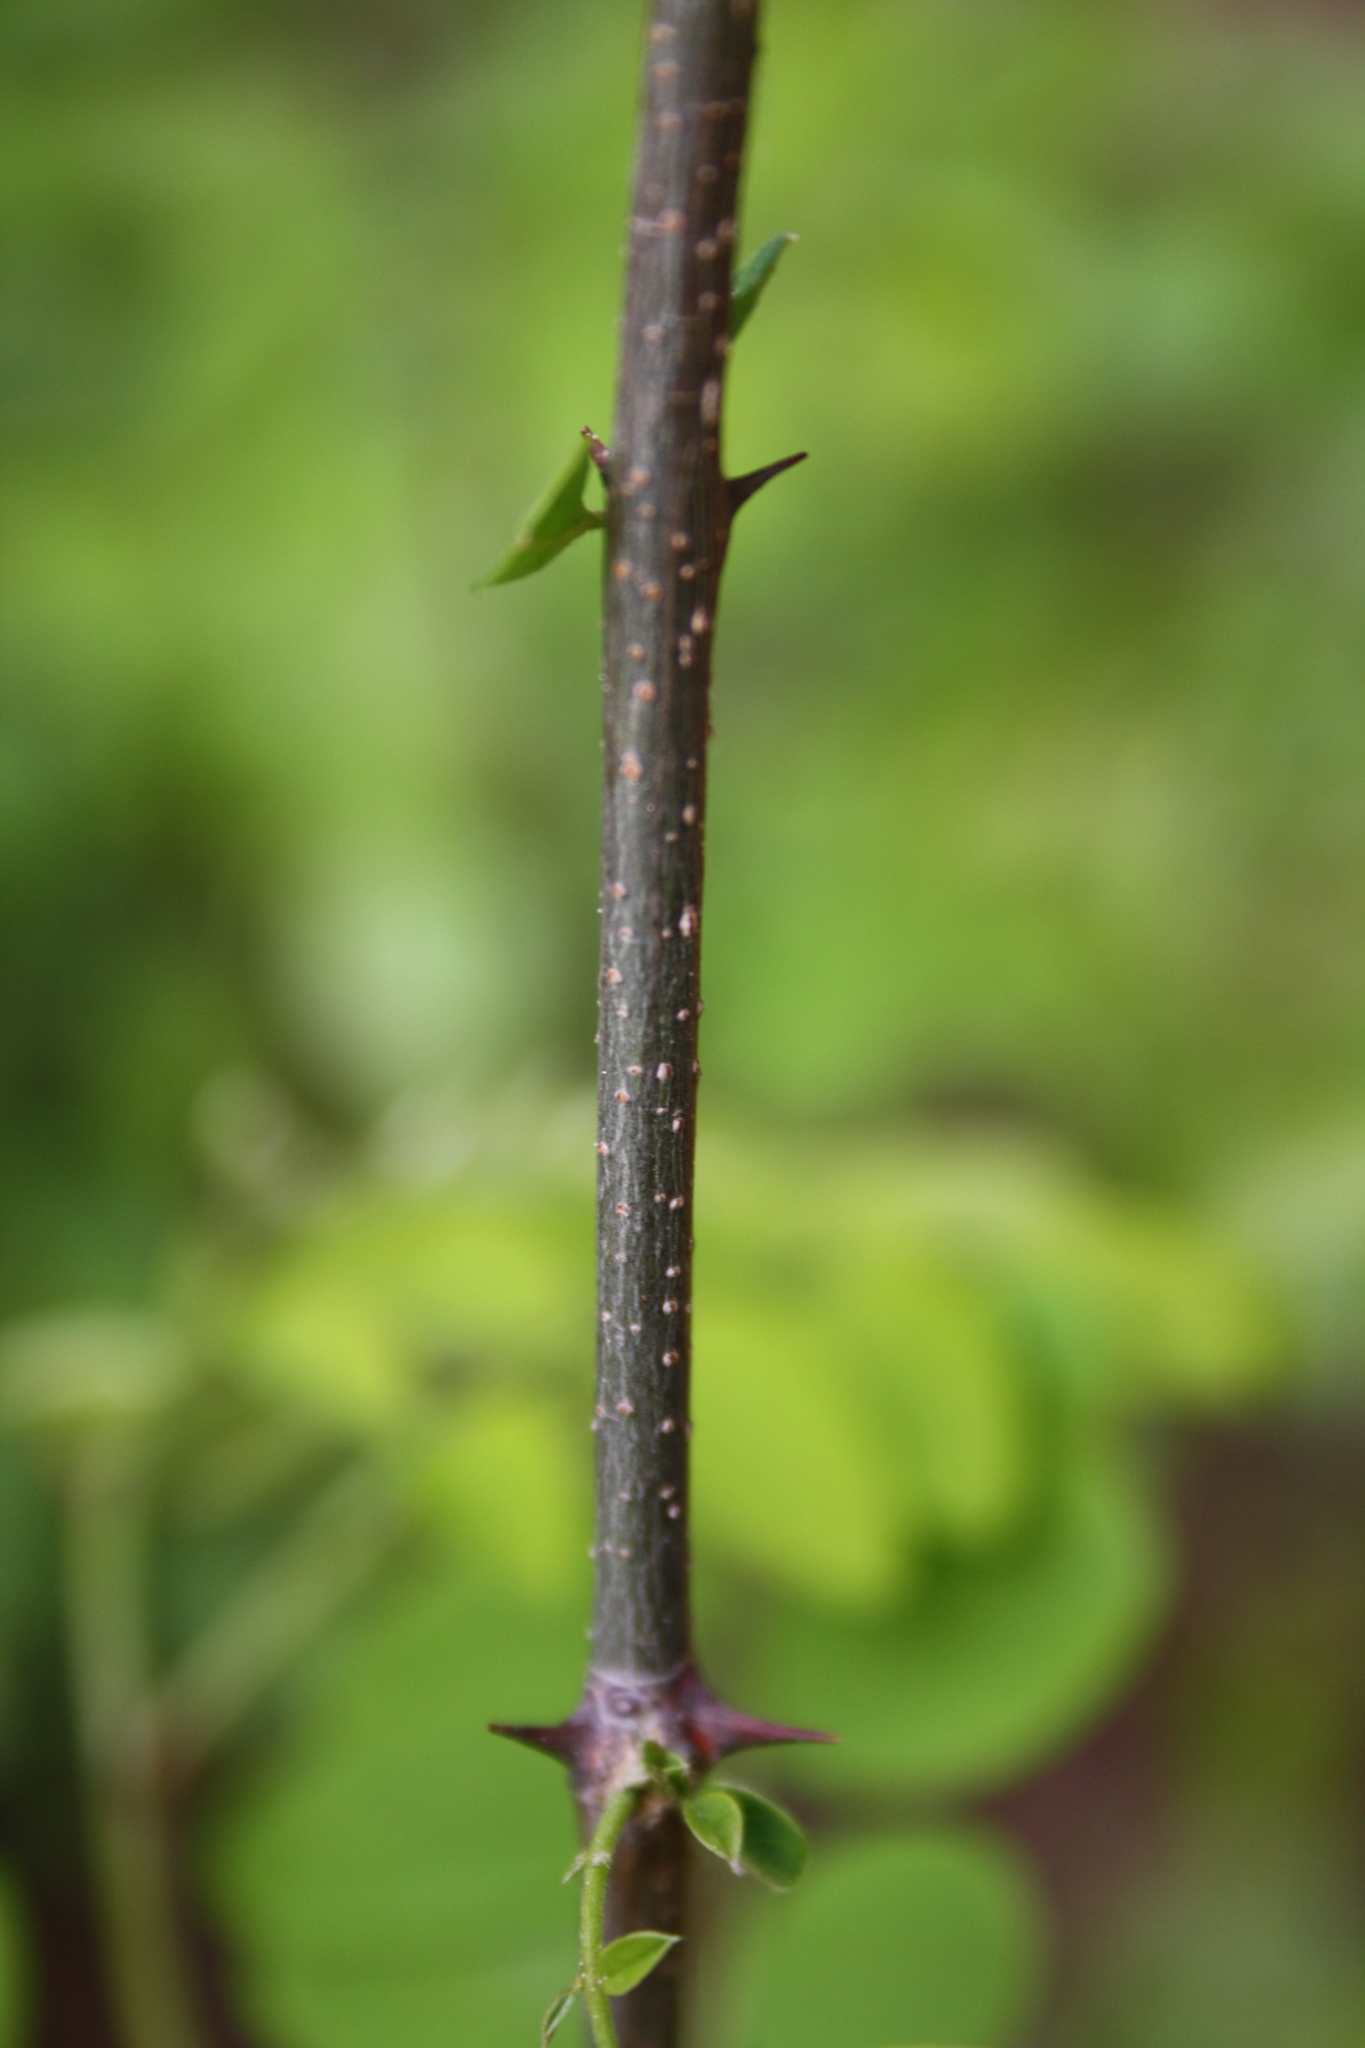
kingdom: Plantae
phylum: Tracheophyta
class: Magnoliopsida
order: Fabales
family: Fabaceae
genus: Robinia
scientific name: Robinia pseudoacacia
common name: Black locust
